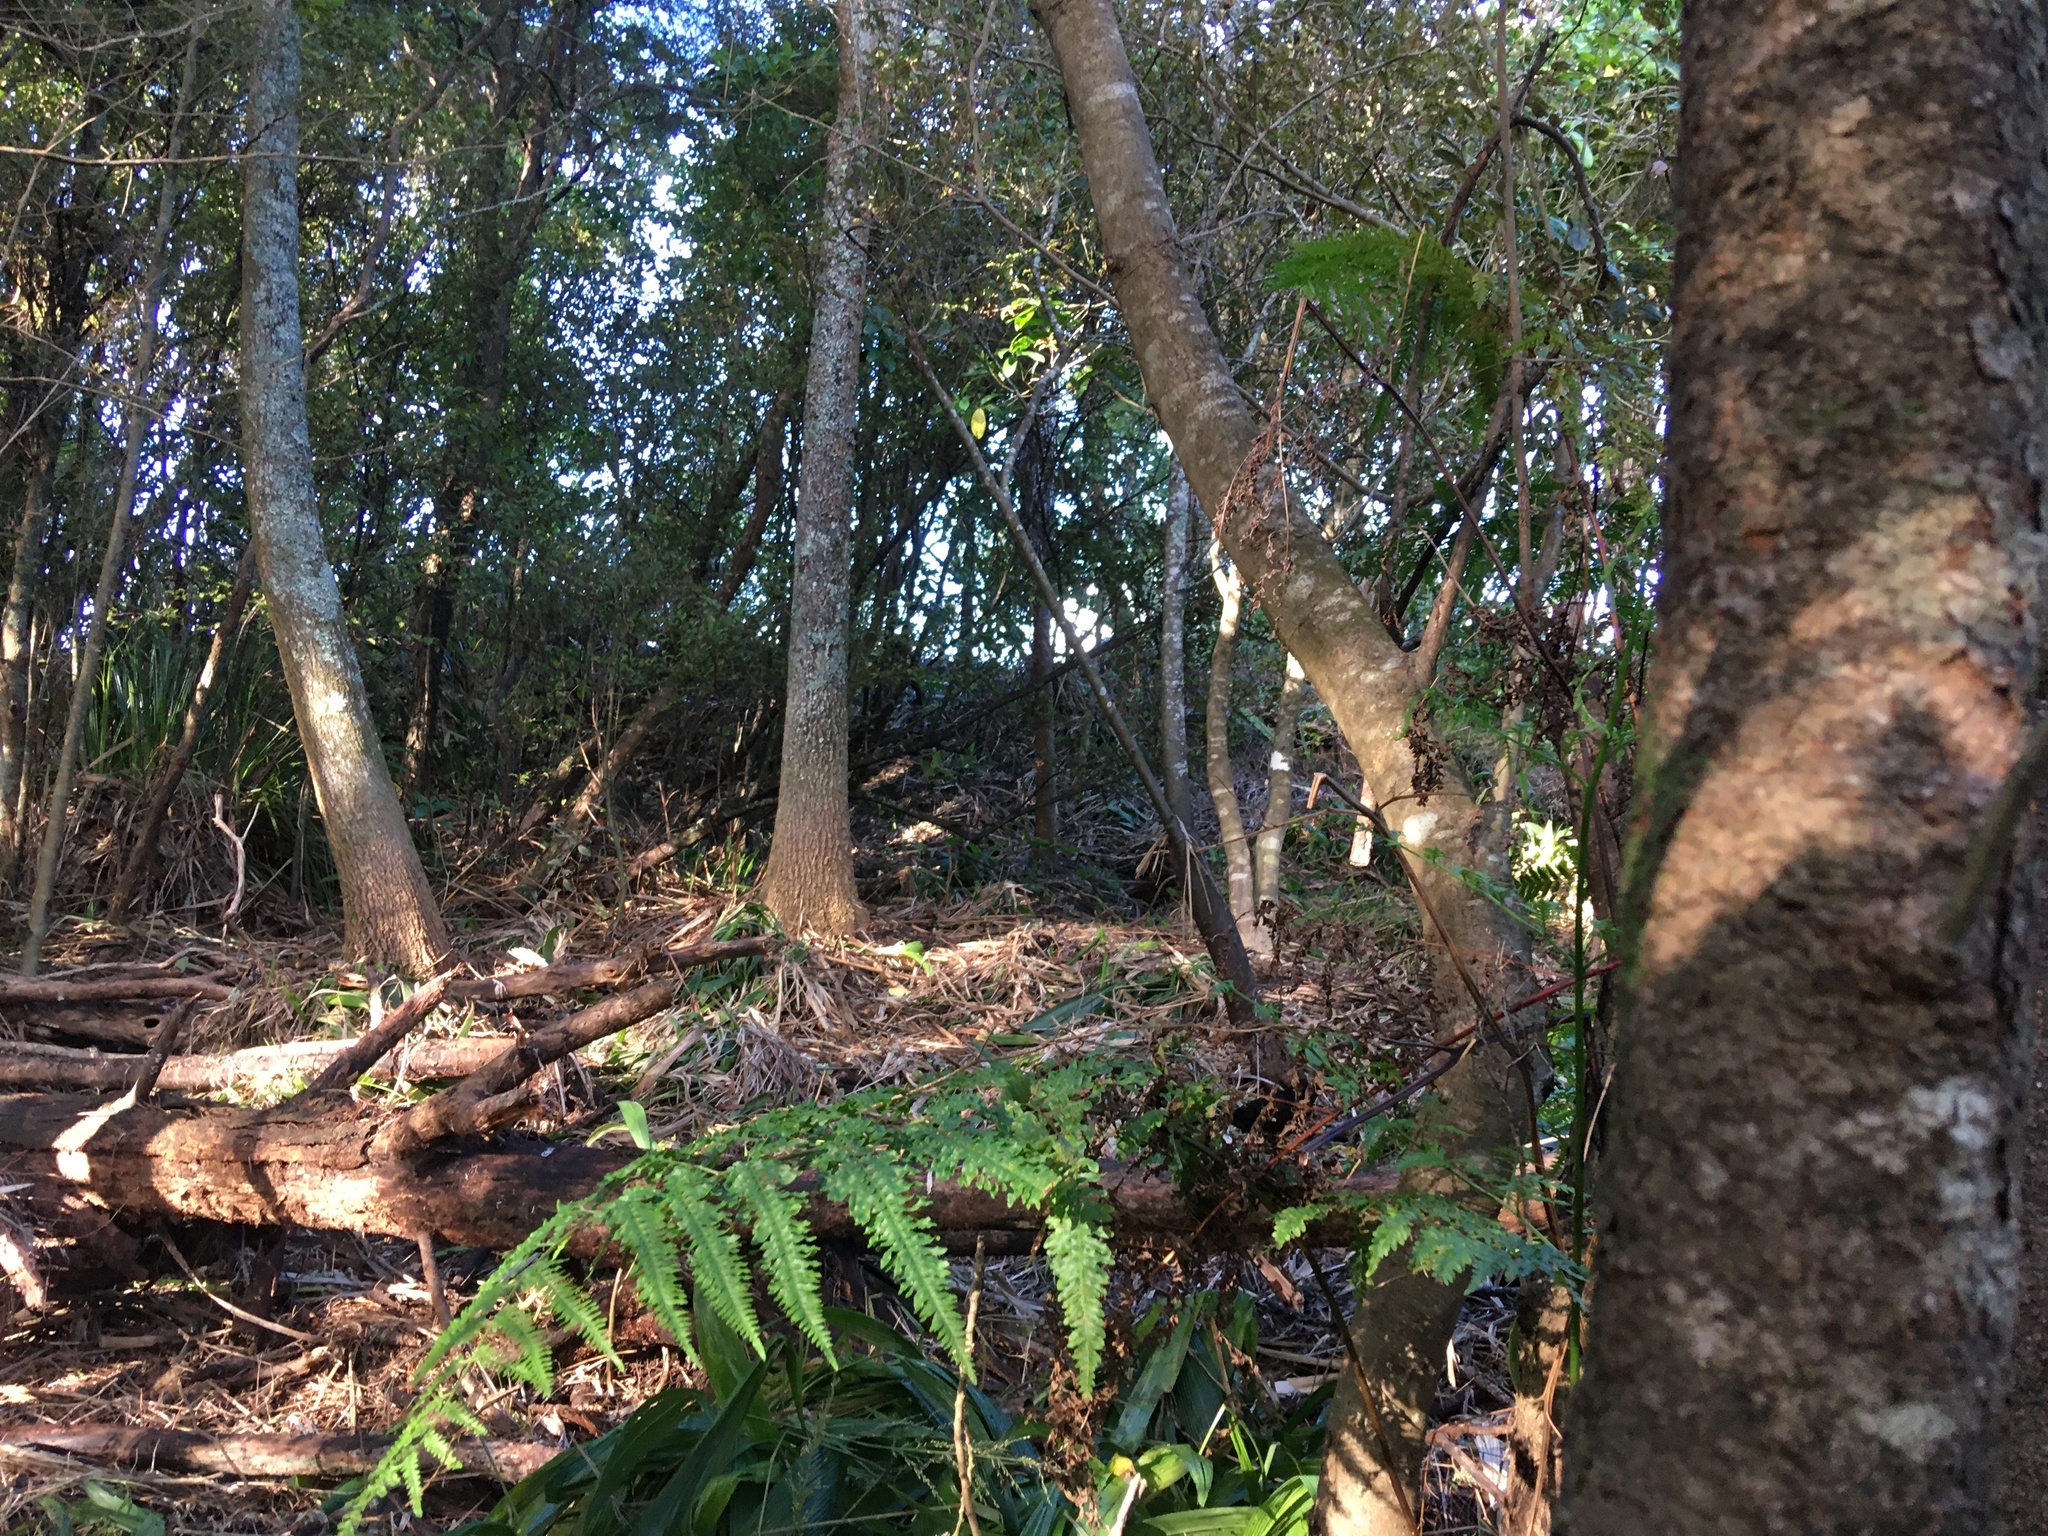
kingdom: Plantae
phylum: Tracheophyta
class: Polypodiopsida
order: Polypodiales
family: Pteridaceae
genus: Pteris
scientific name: Pteris tremula
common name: Australian brake
